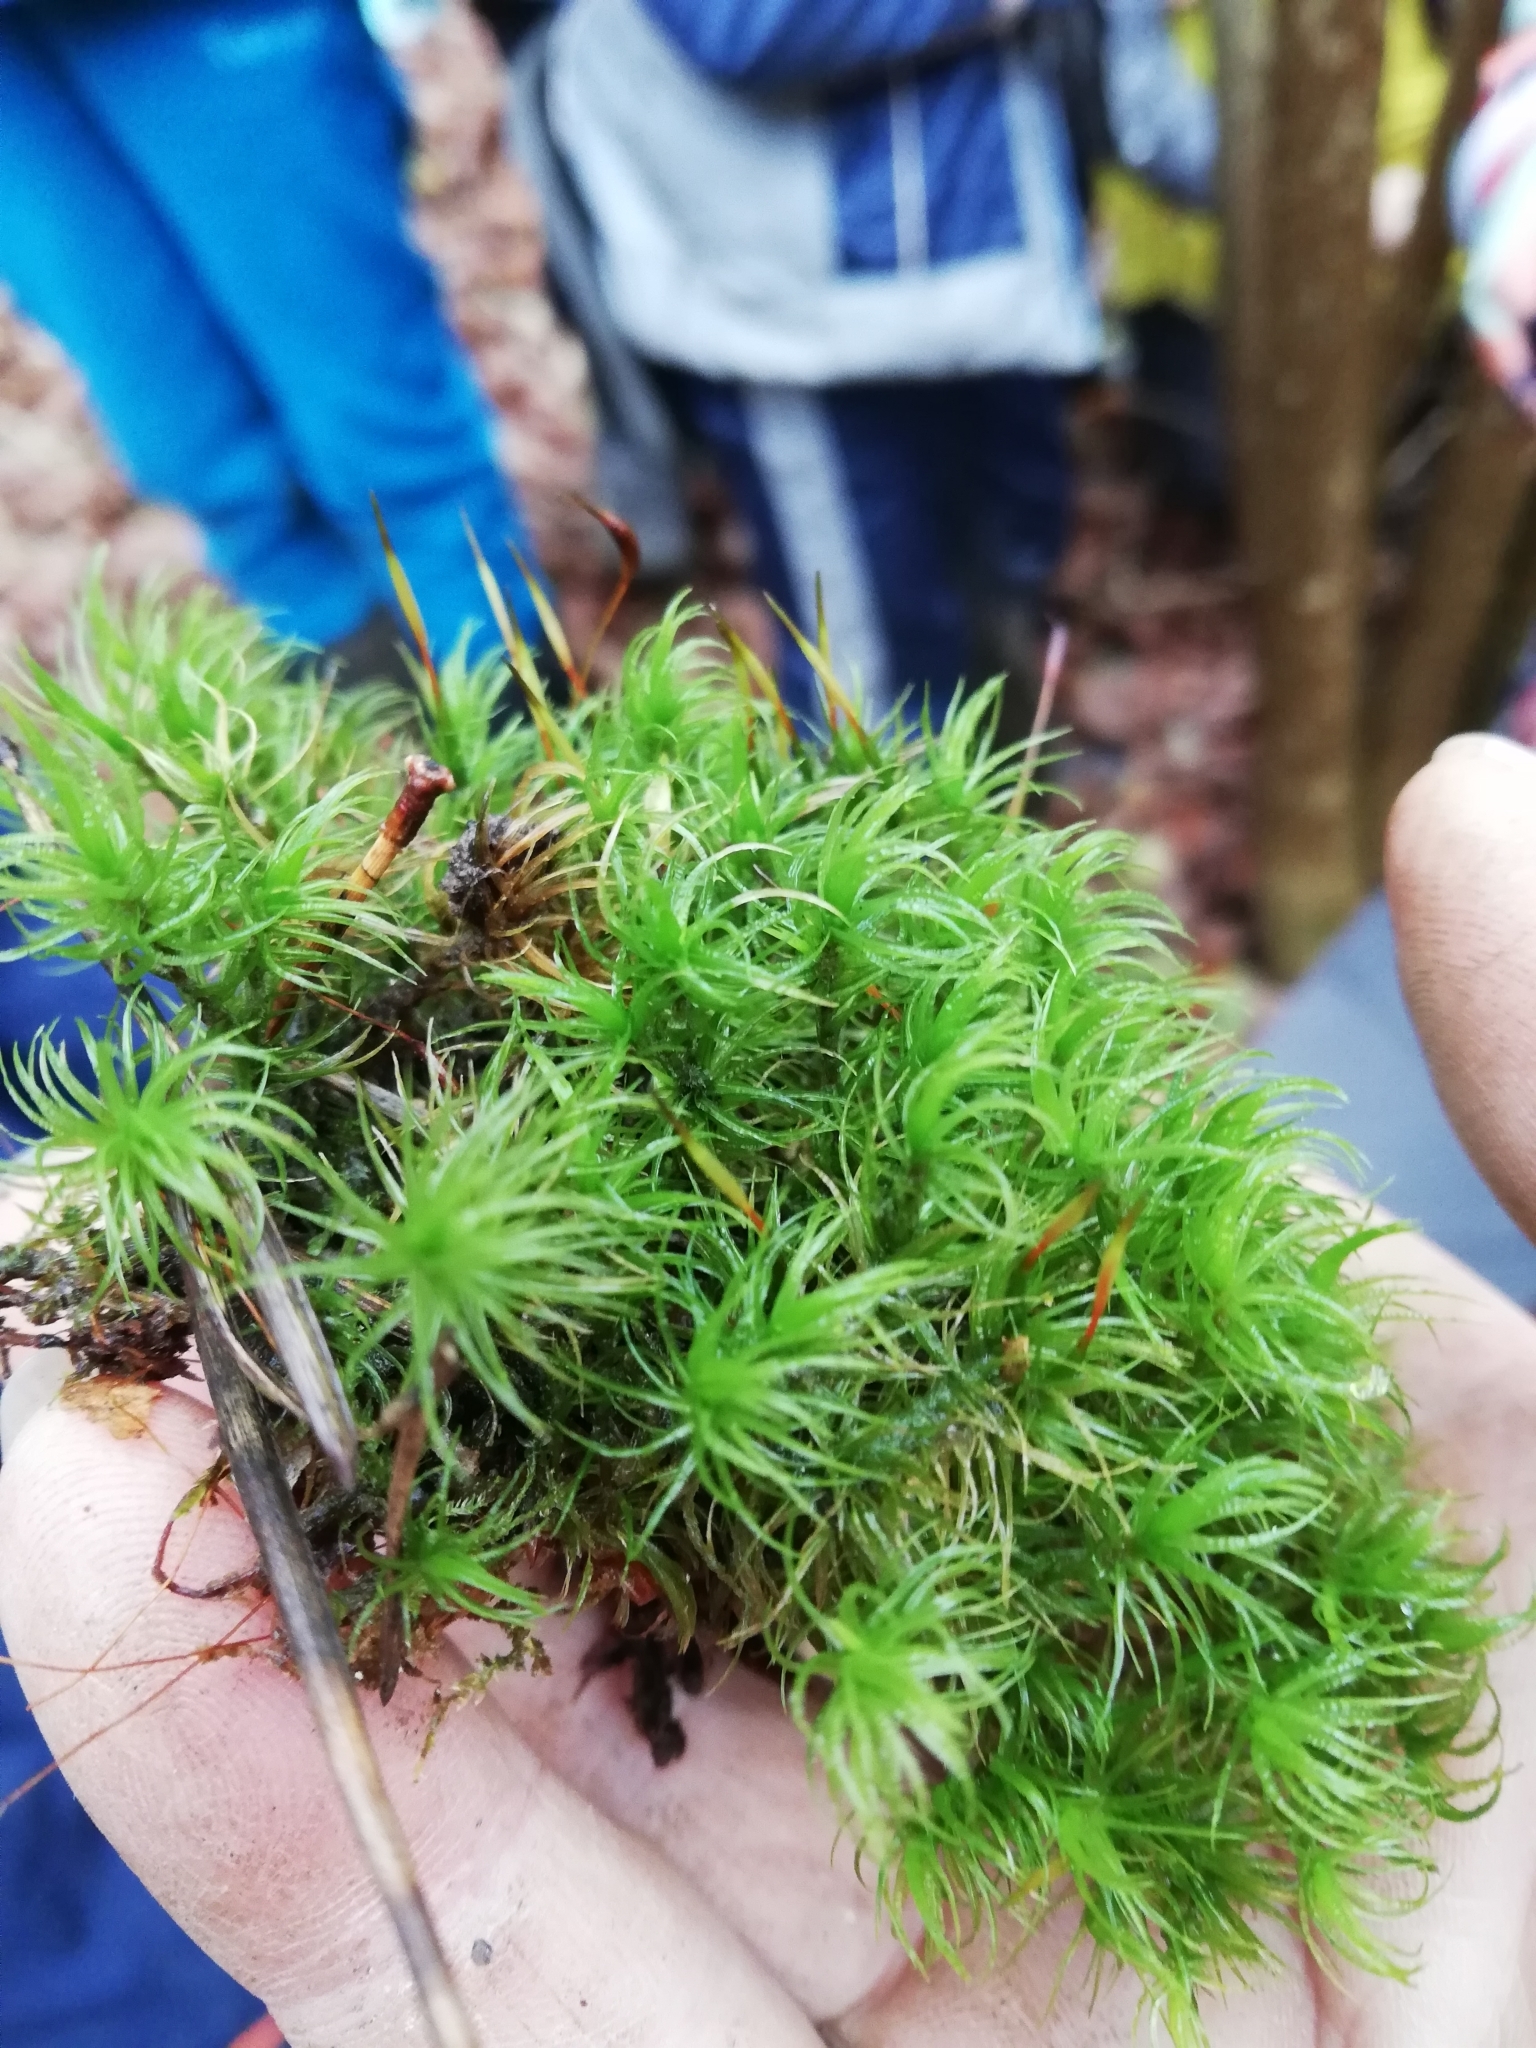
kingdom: Plantae
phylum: Bryophyta
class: Bryopsida
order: Dicranales
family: Dicranaceae
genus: Dicranum
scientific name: Dicranum scoparium
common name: Broom fork-moss
